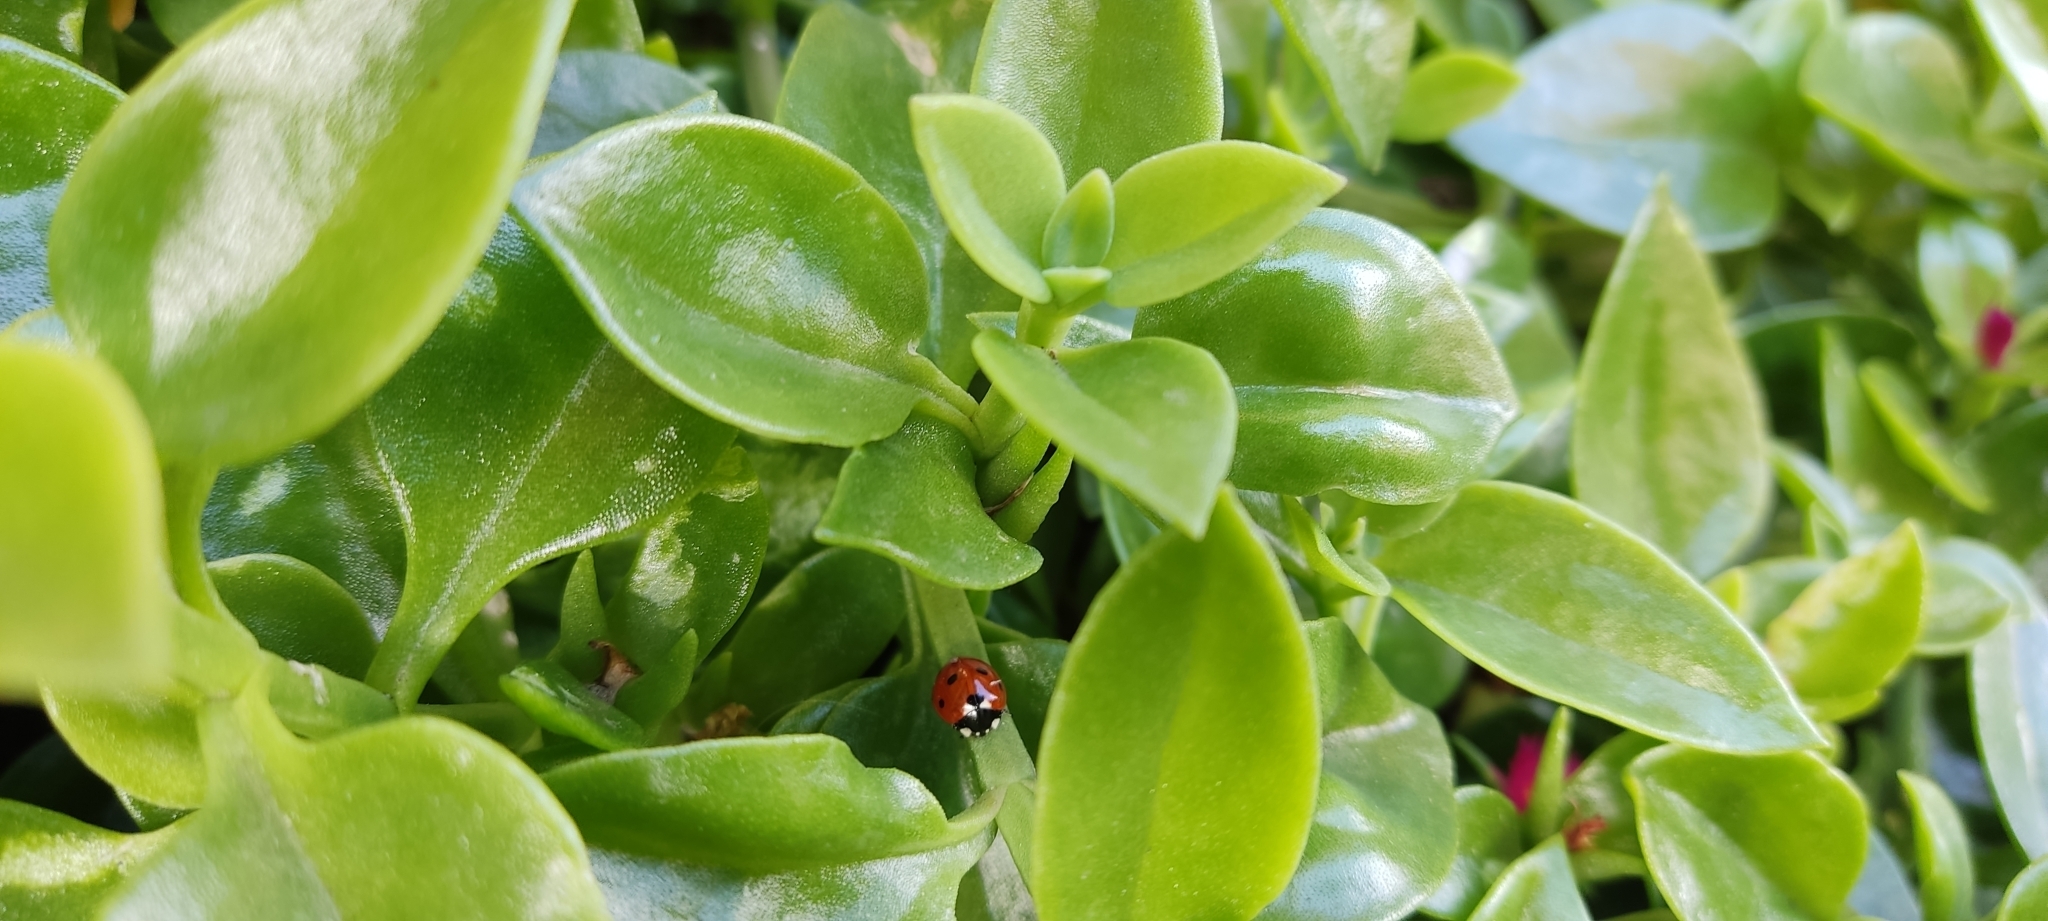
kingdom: Animalia
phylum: Arthropoda
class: Insecta
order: Coleoptera
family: Coccinellidae
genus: Coccinella
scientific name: Coccinella septempunctata
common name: Sevenspotted lady beetle
